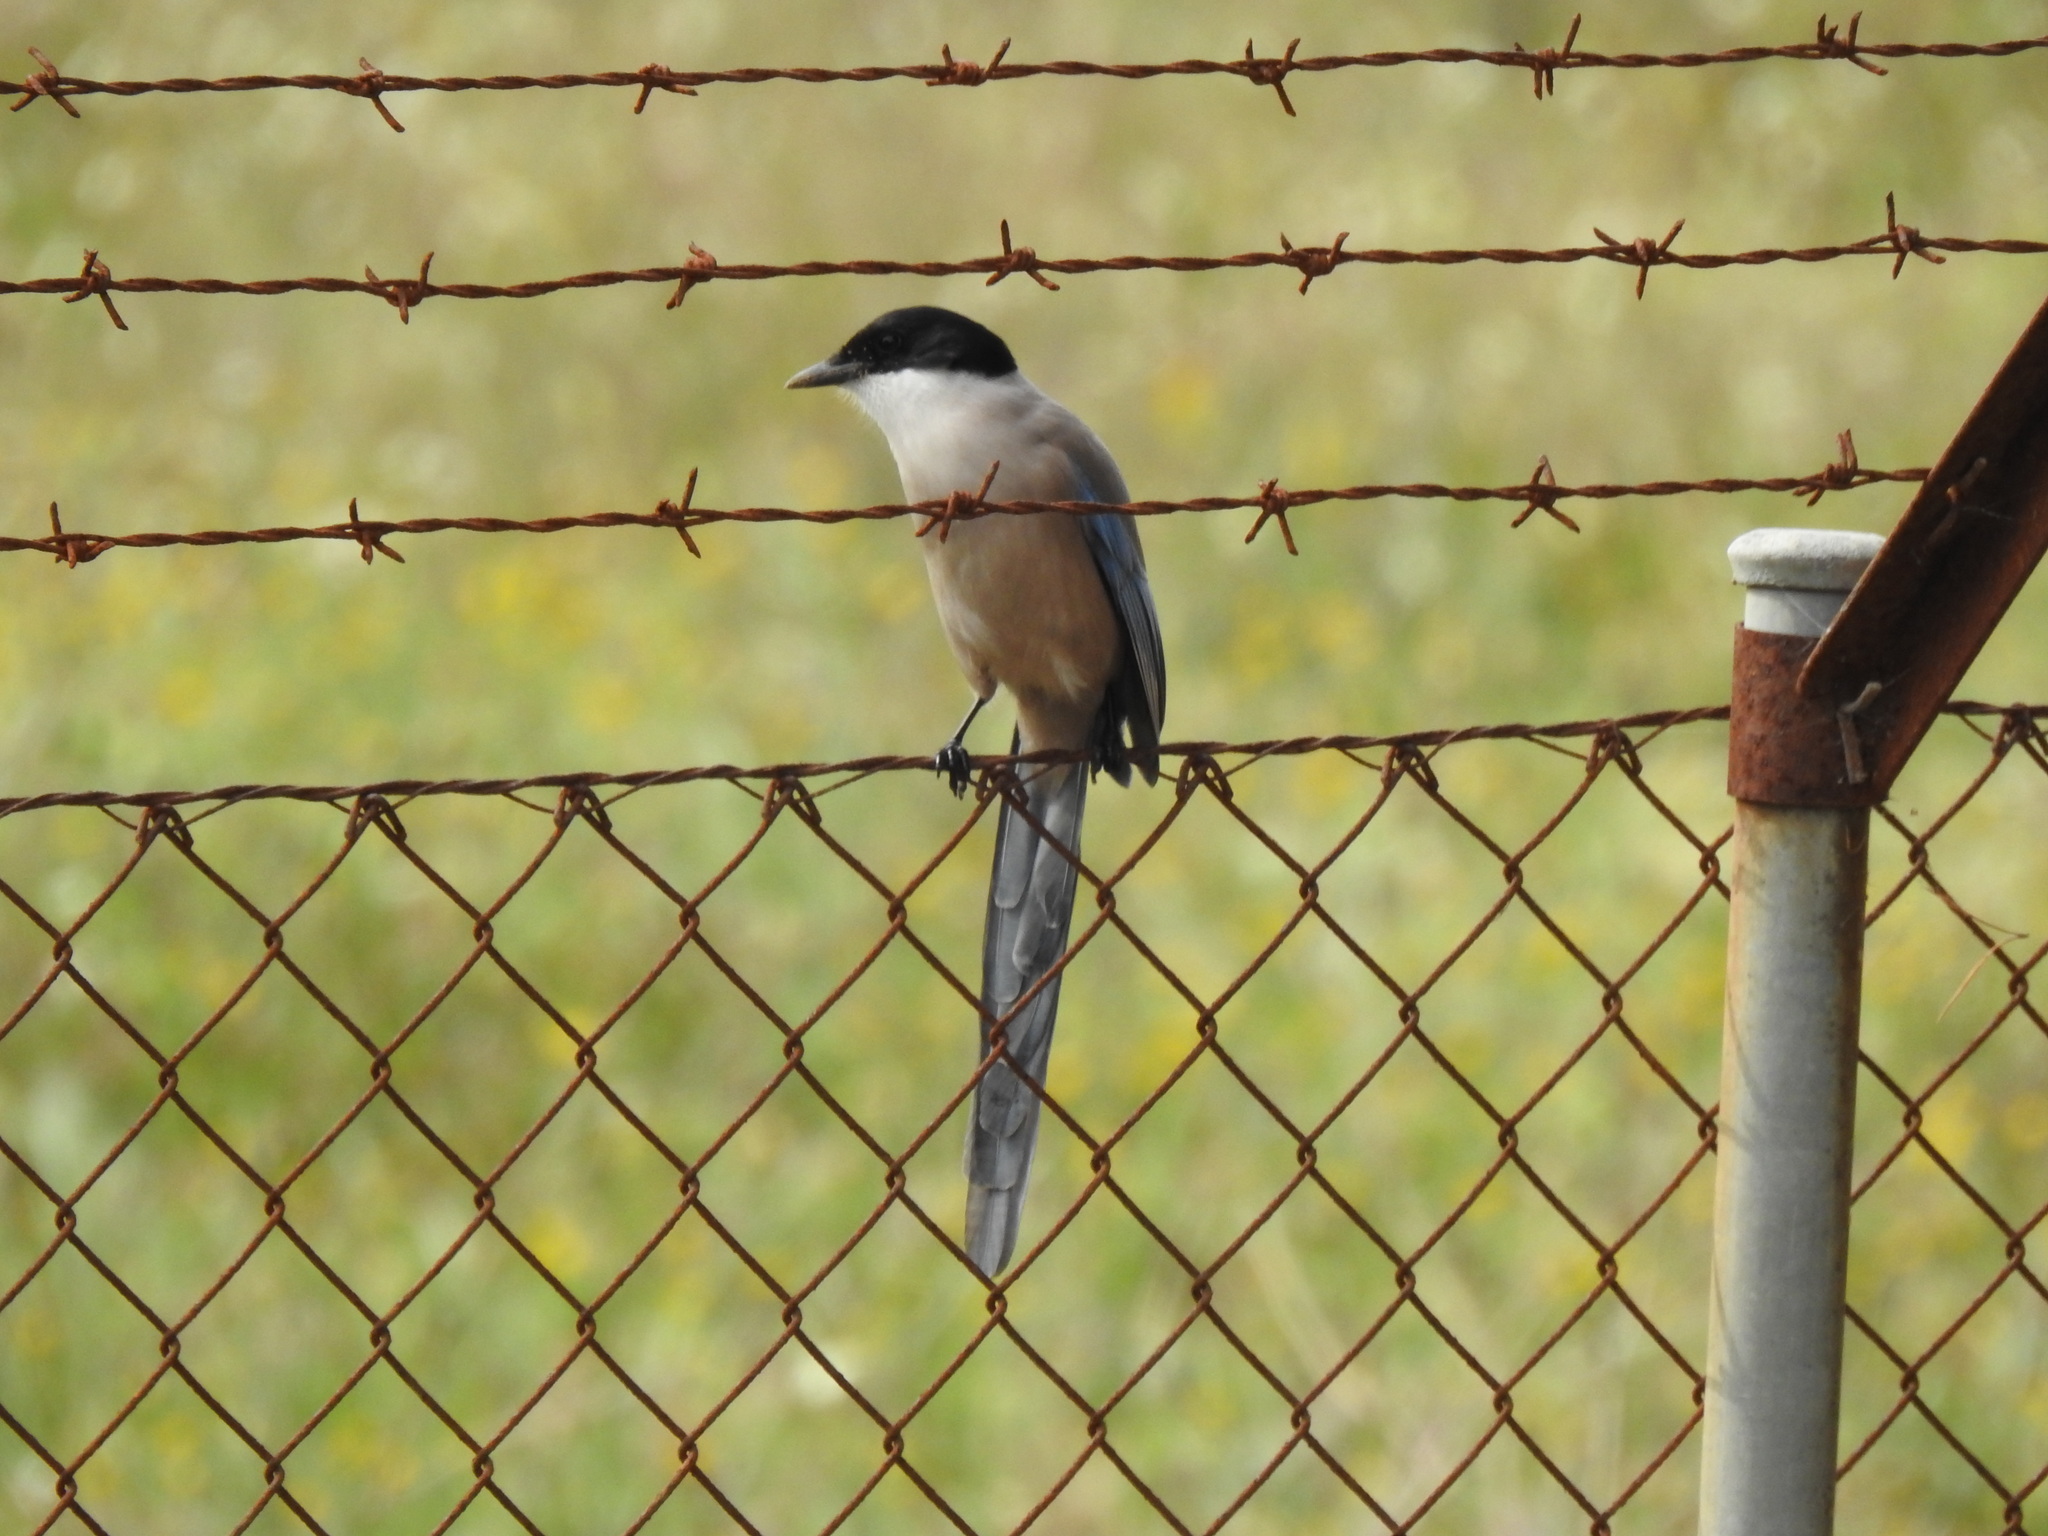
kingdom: Animalia
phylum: Chordata
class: Aves
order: Passeriformes
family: Corvidae
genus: Cyanopica
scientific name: Cyanopica cooki
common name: Iberian magpie
